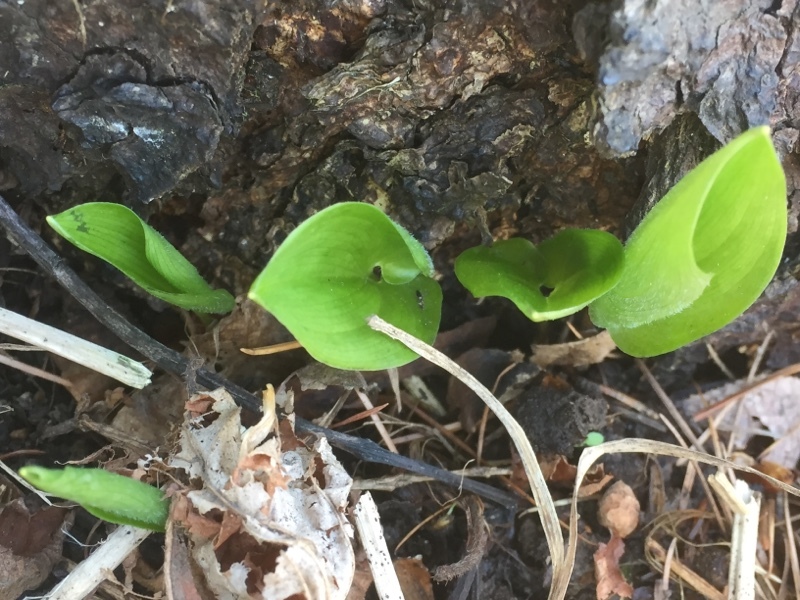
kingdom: Plantae
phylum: Tracheophyta
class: Liliopsida
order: Asparagales
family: Asparagaceae
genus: Maianthemum
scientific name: Maianthemum bifolium
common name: May lily
